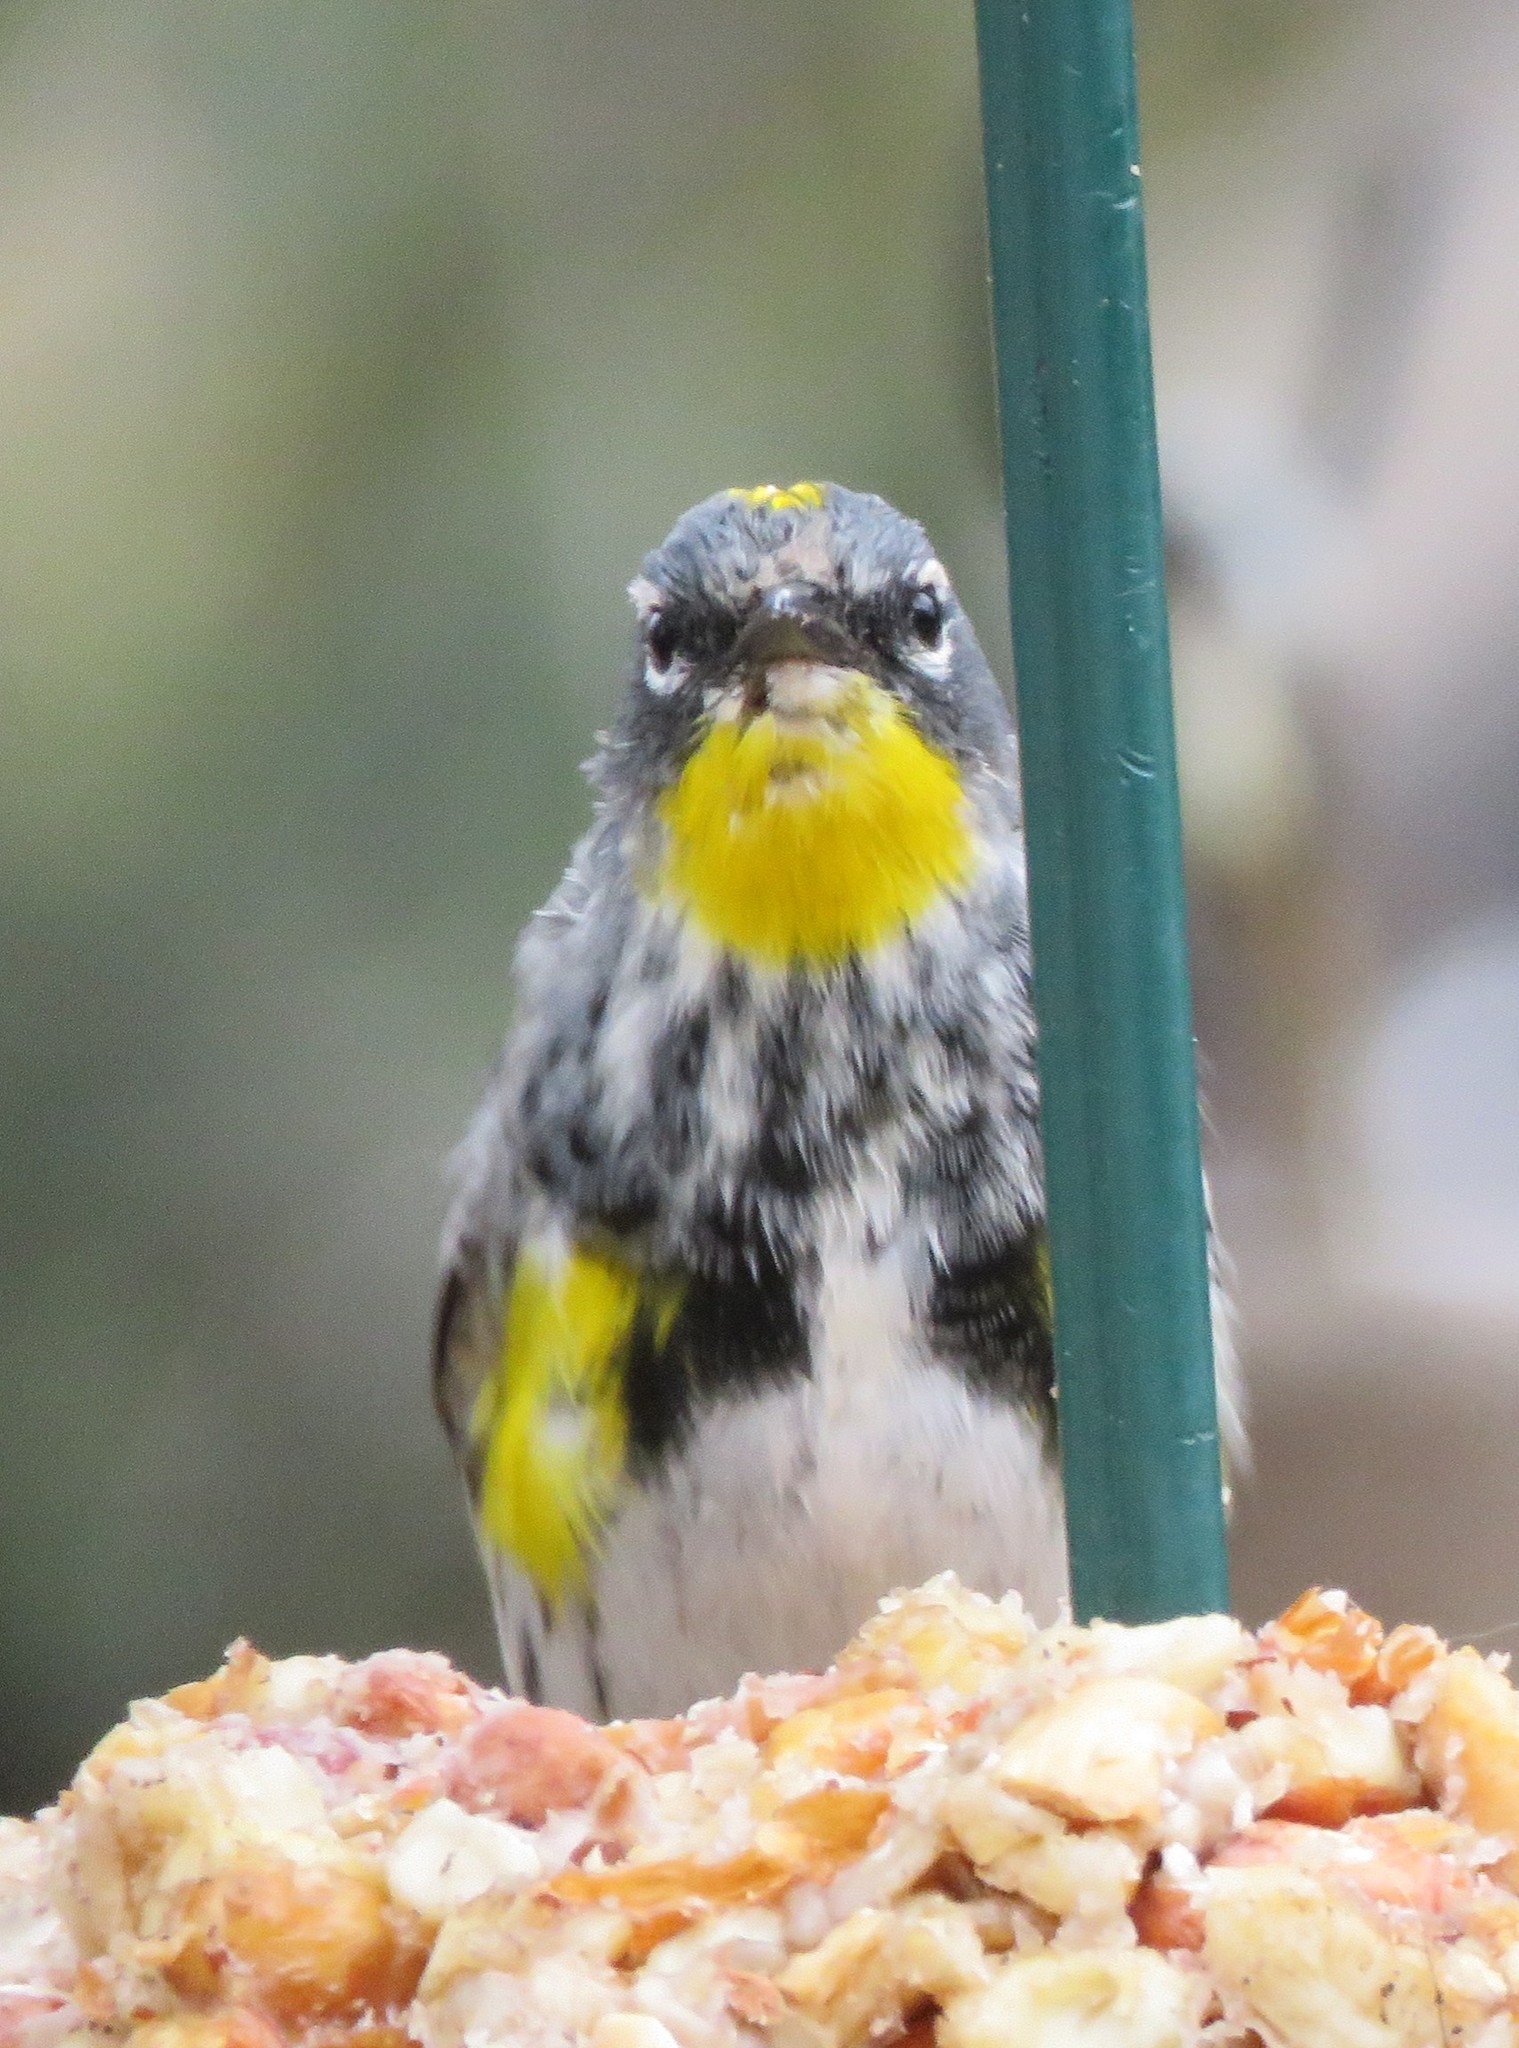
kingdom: Animalia
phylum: Chordata
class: Aves
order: Passeriformes
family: Parulidae
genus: Setophaga
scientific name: Setophaga auduboni
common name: Audubon's warbler
